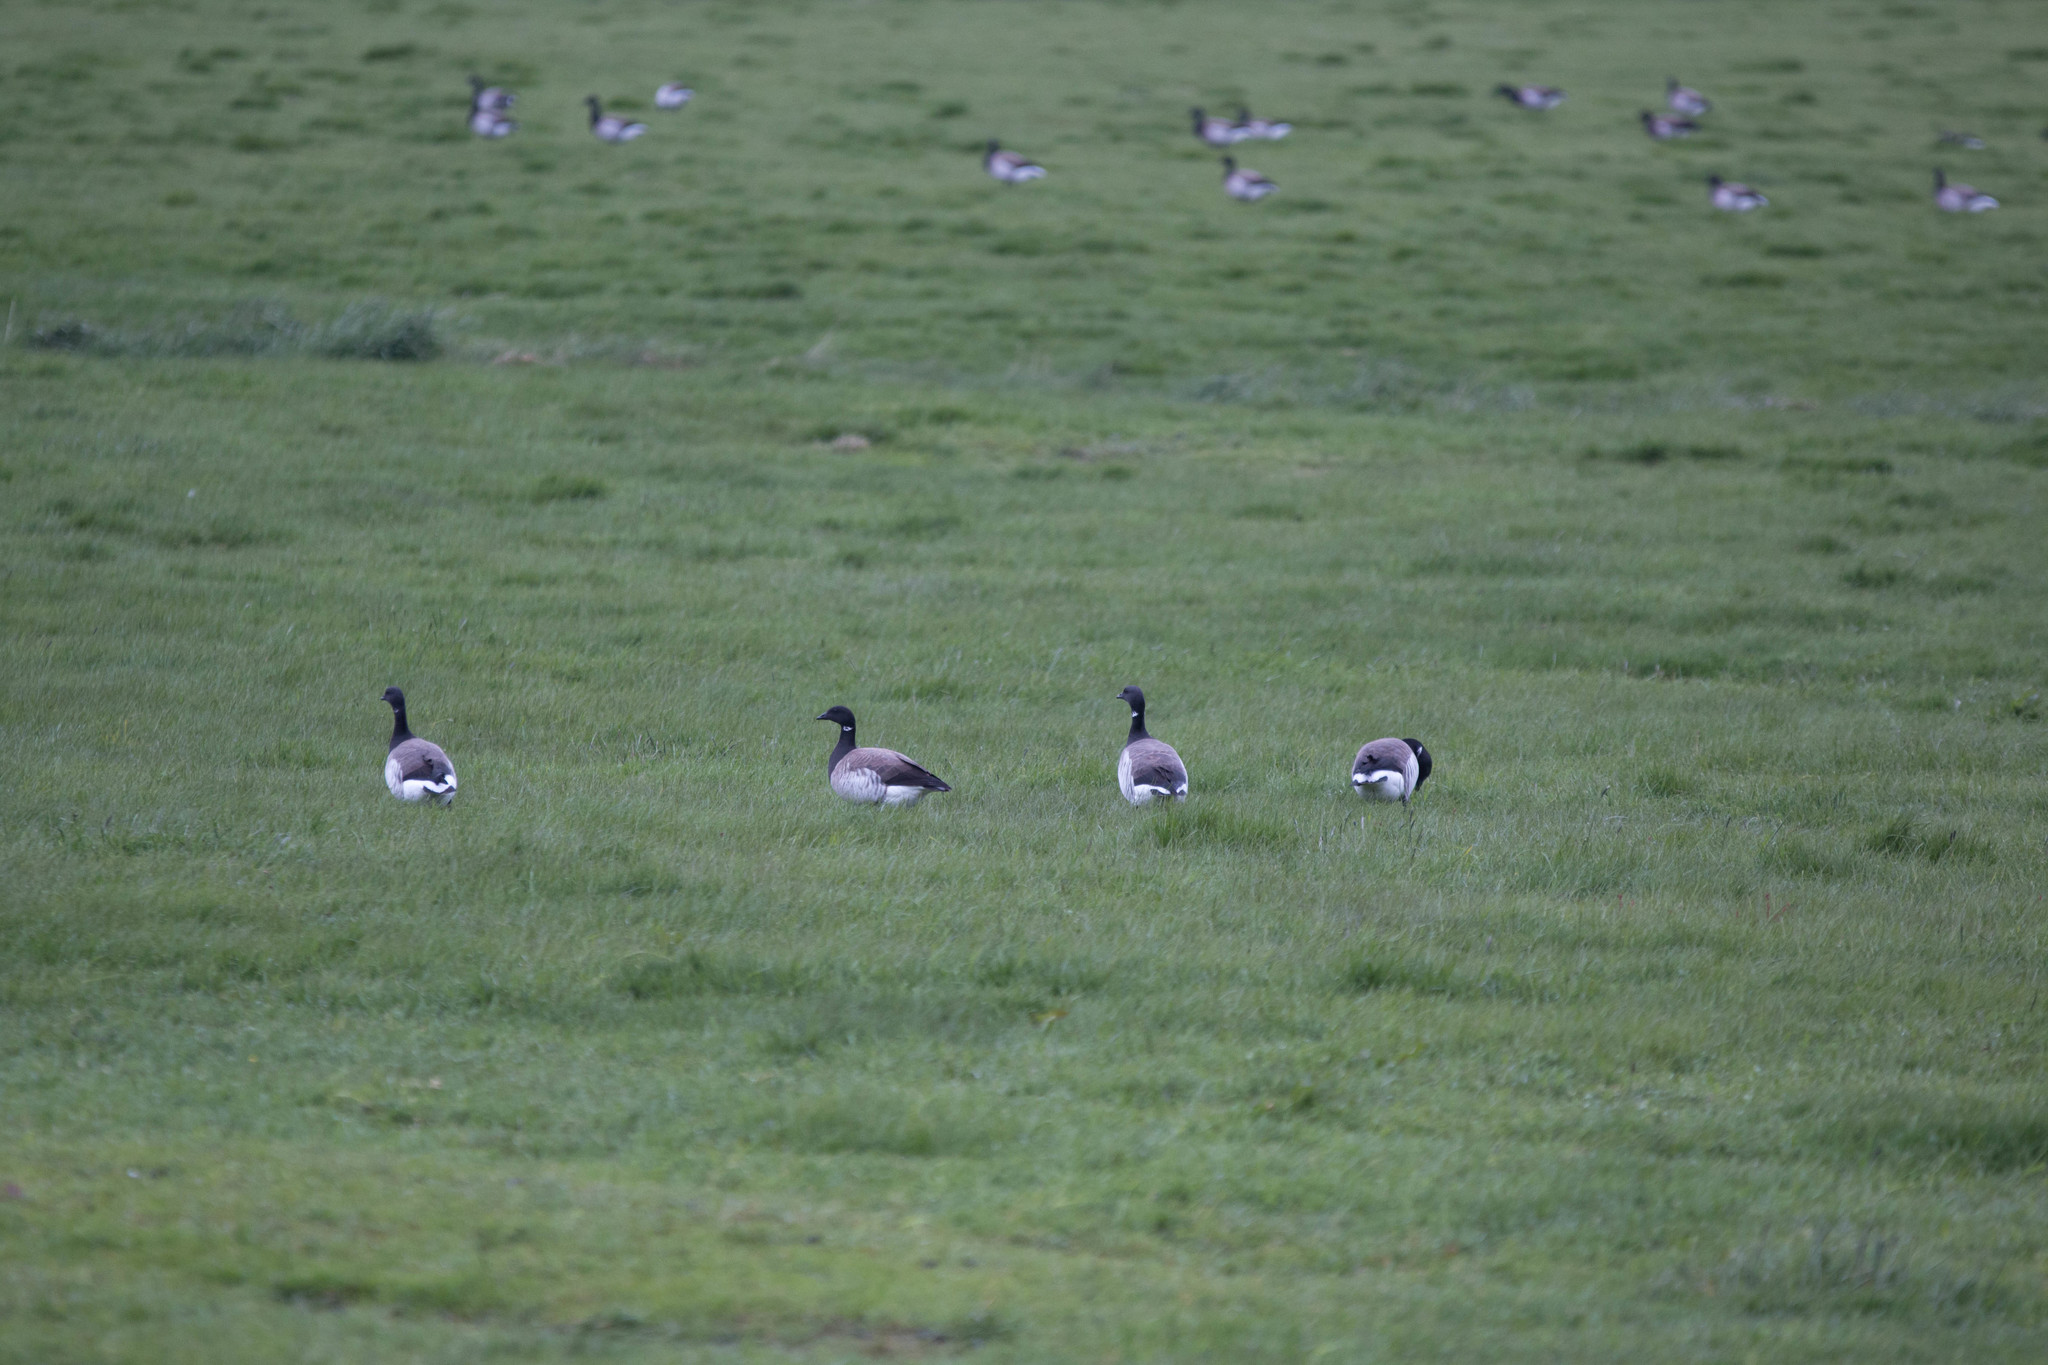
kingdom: Animalia
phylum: Chordata
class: Aves
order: Anseriformes
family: Anatidae
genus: Branta
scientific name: Branta bernicla
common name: Brant goose
